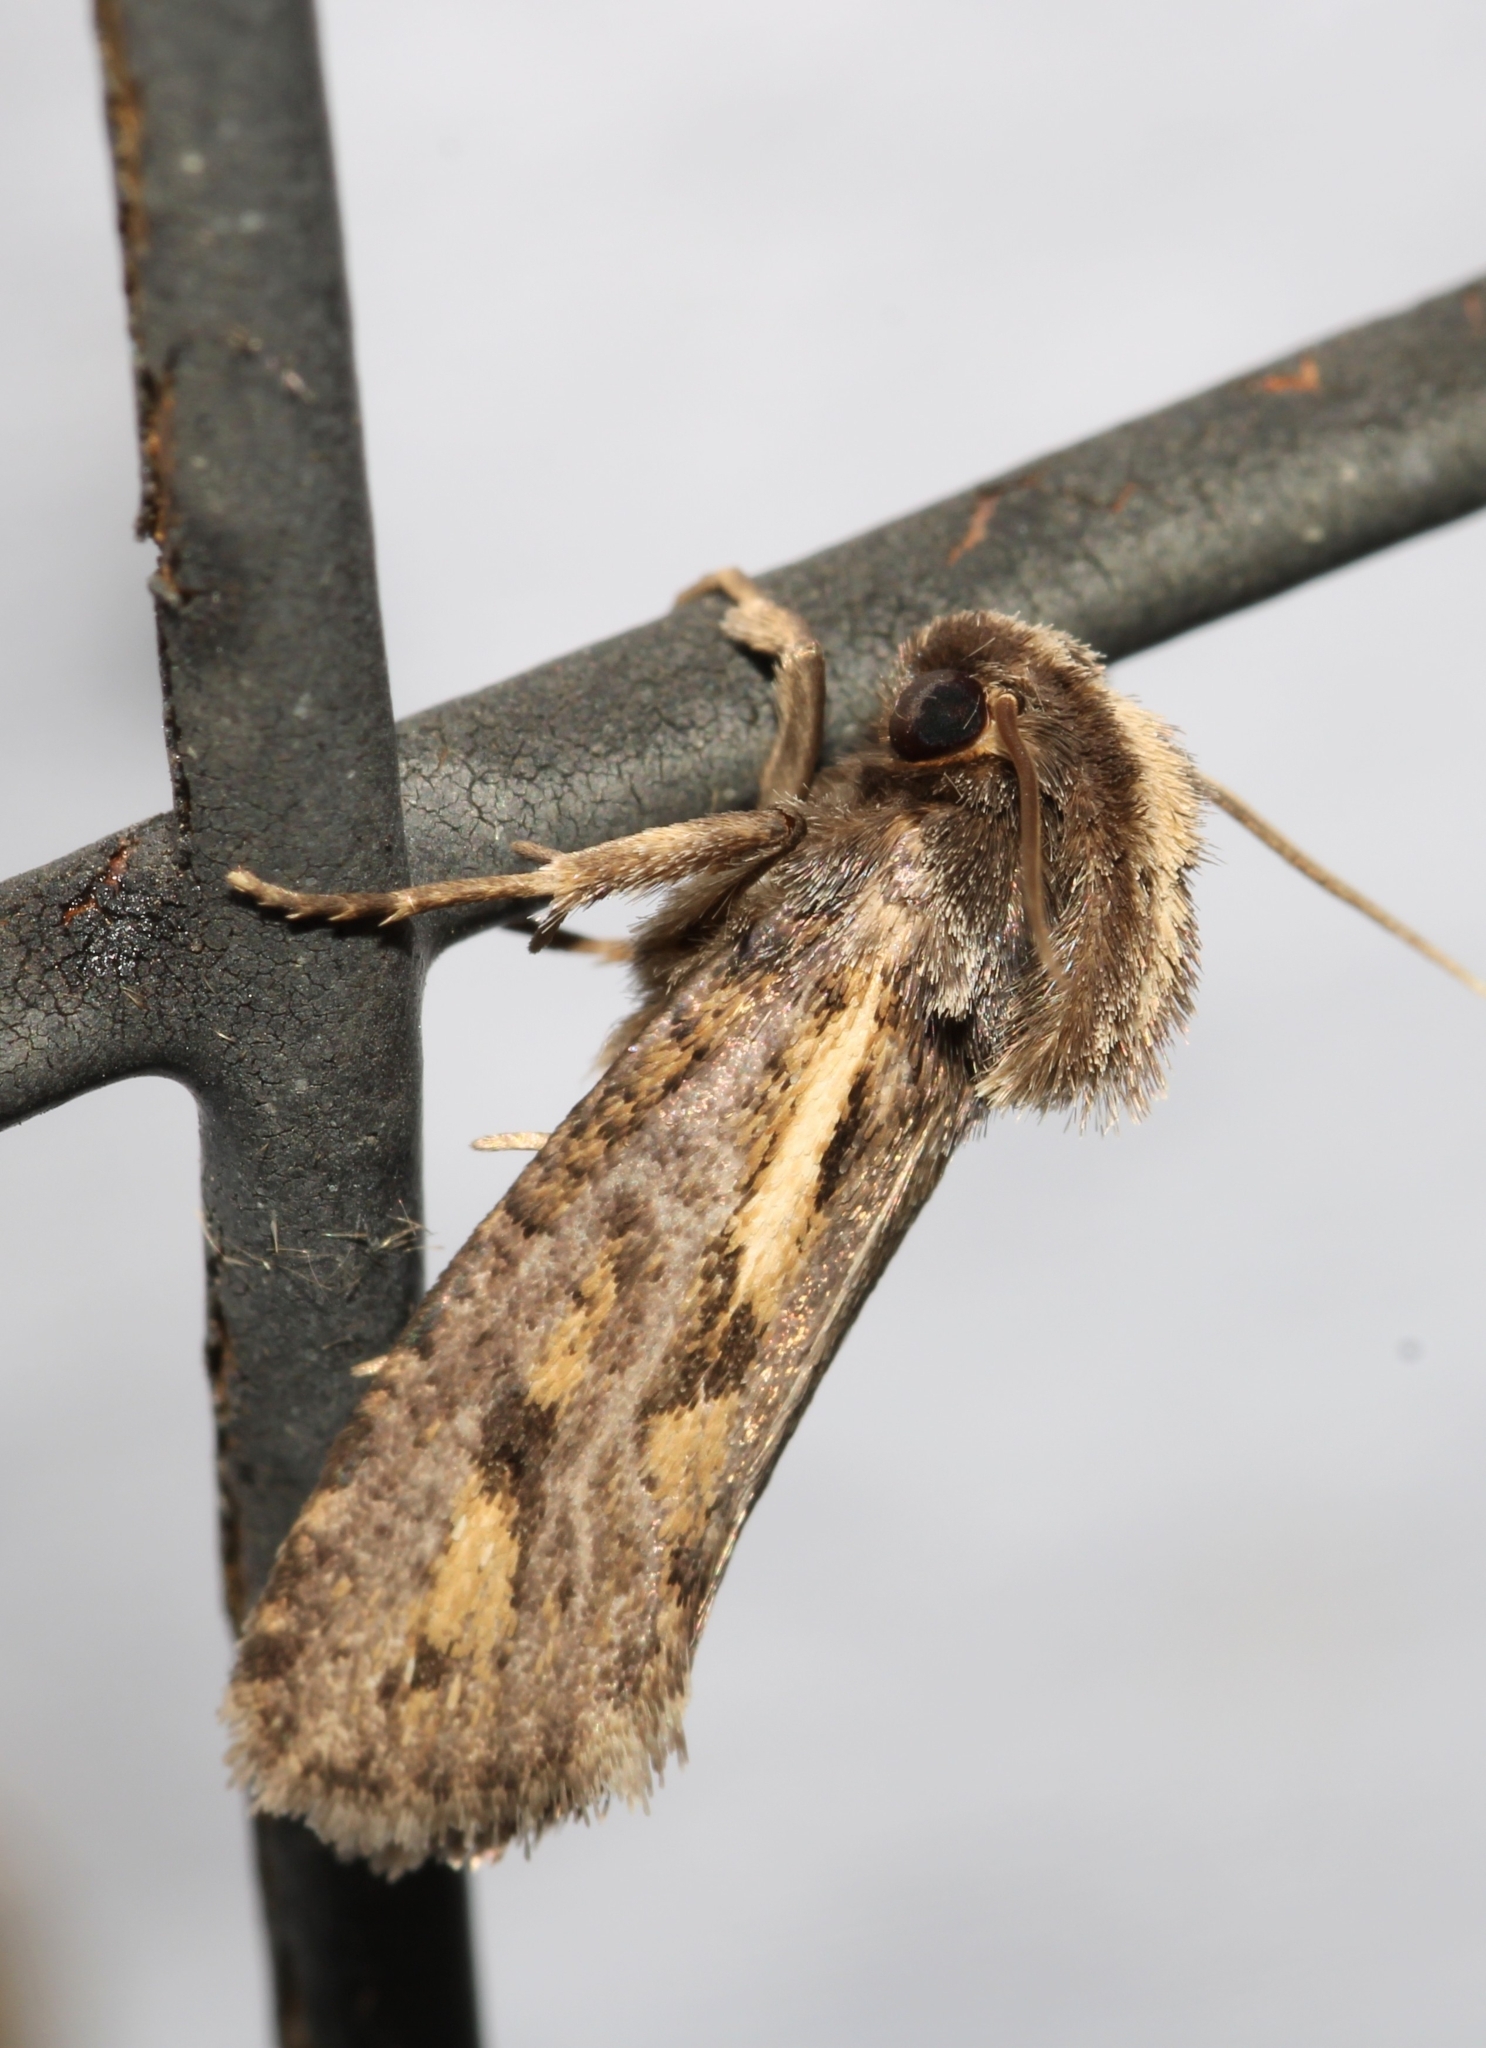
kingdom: Animalia
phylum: Arthropoda
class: Insecta
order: Lepidoptera
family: Tineidae
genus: Acrolophus
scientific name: Acrolophus popeanella
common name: Clemens' grass tubeworm moth
